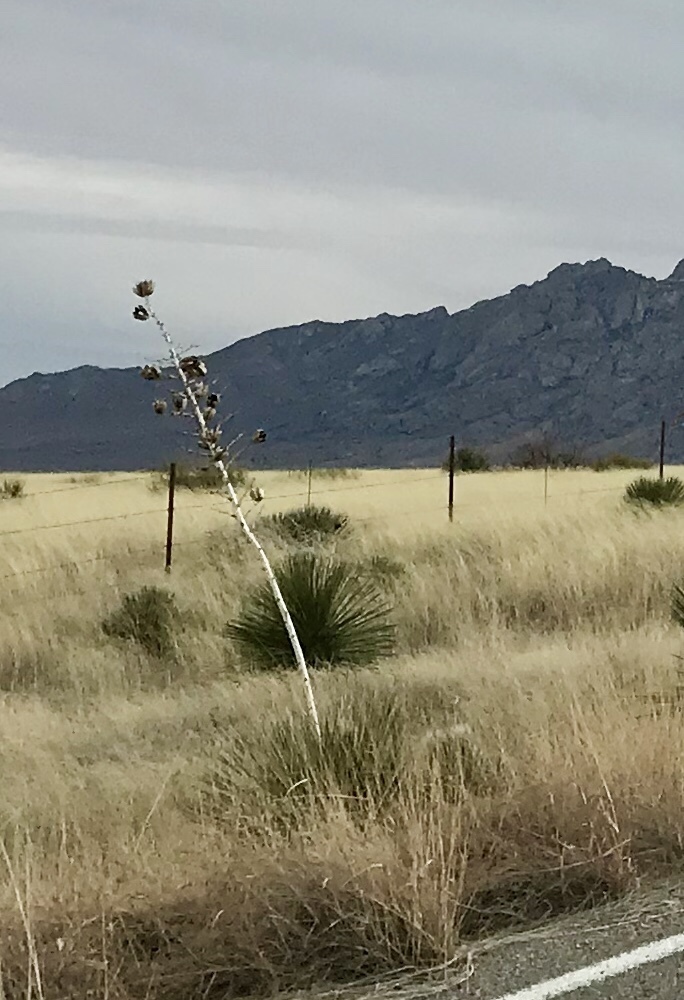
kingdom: Plantae
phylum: Tracheophyta
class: Liliopsida
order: Asparagales
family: Asparagaceae
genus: Yucca
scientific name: Yucca elata
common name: Palmella
